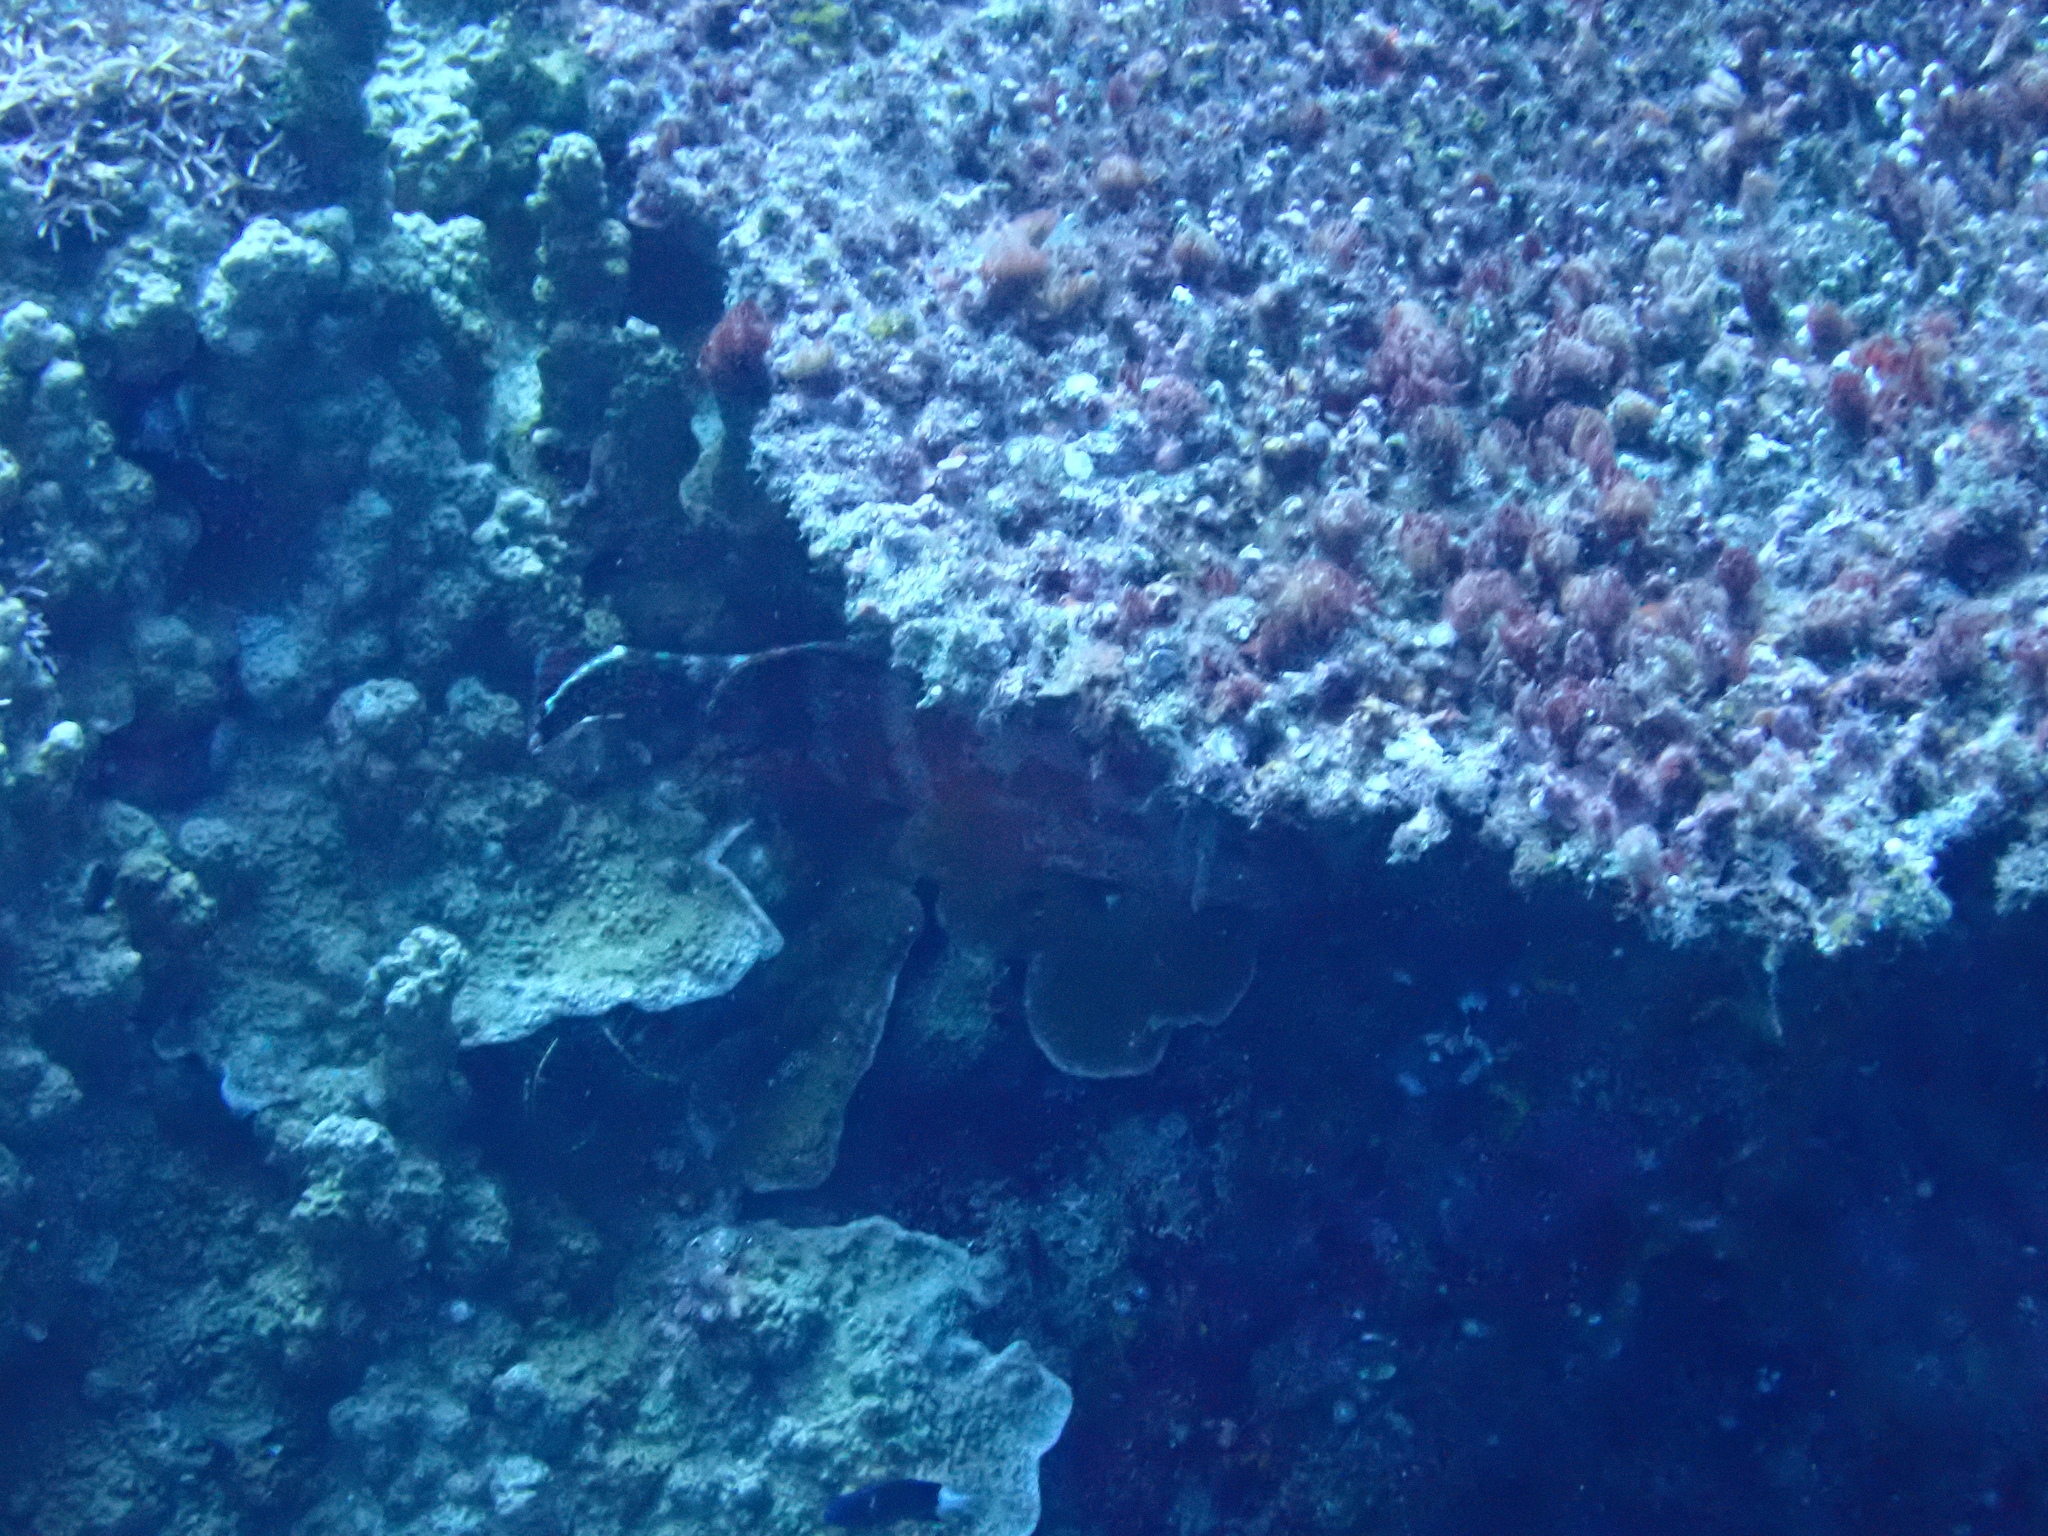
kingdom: Animalia
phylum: Chordata
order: Perciformes
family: Serranidae
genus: Cephalopholis
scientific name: Cephalopholis urodeta
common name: Darkfin hind
